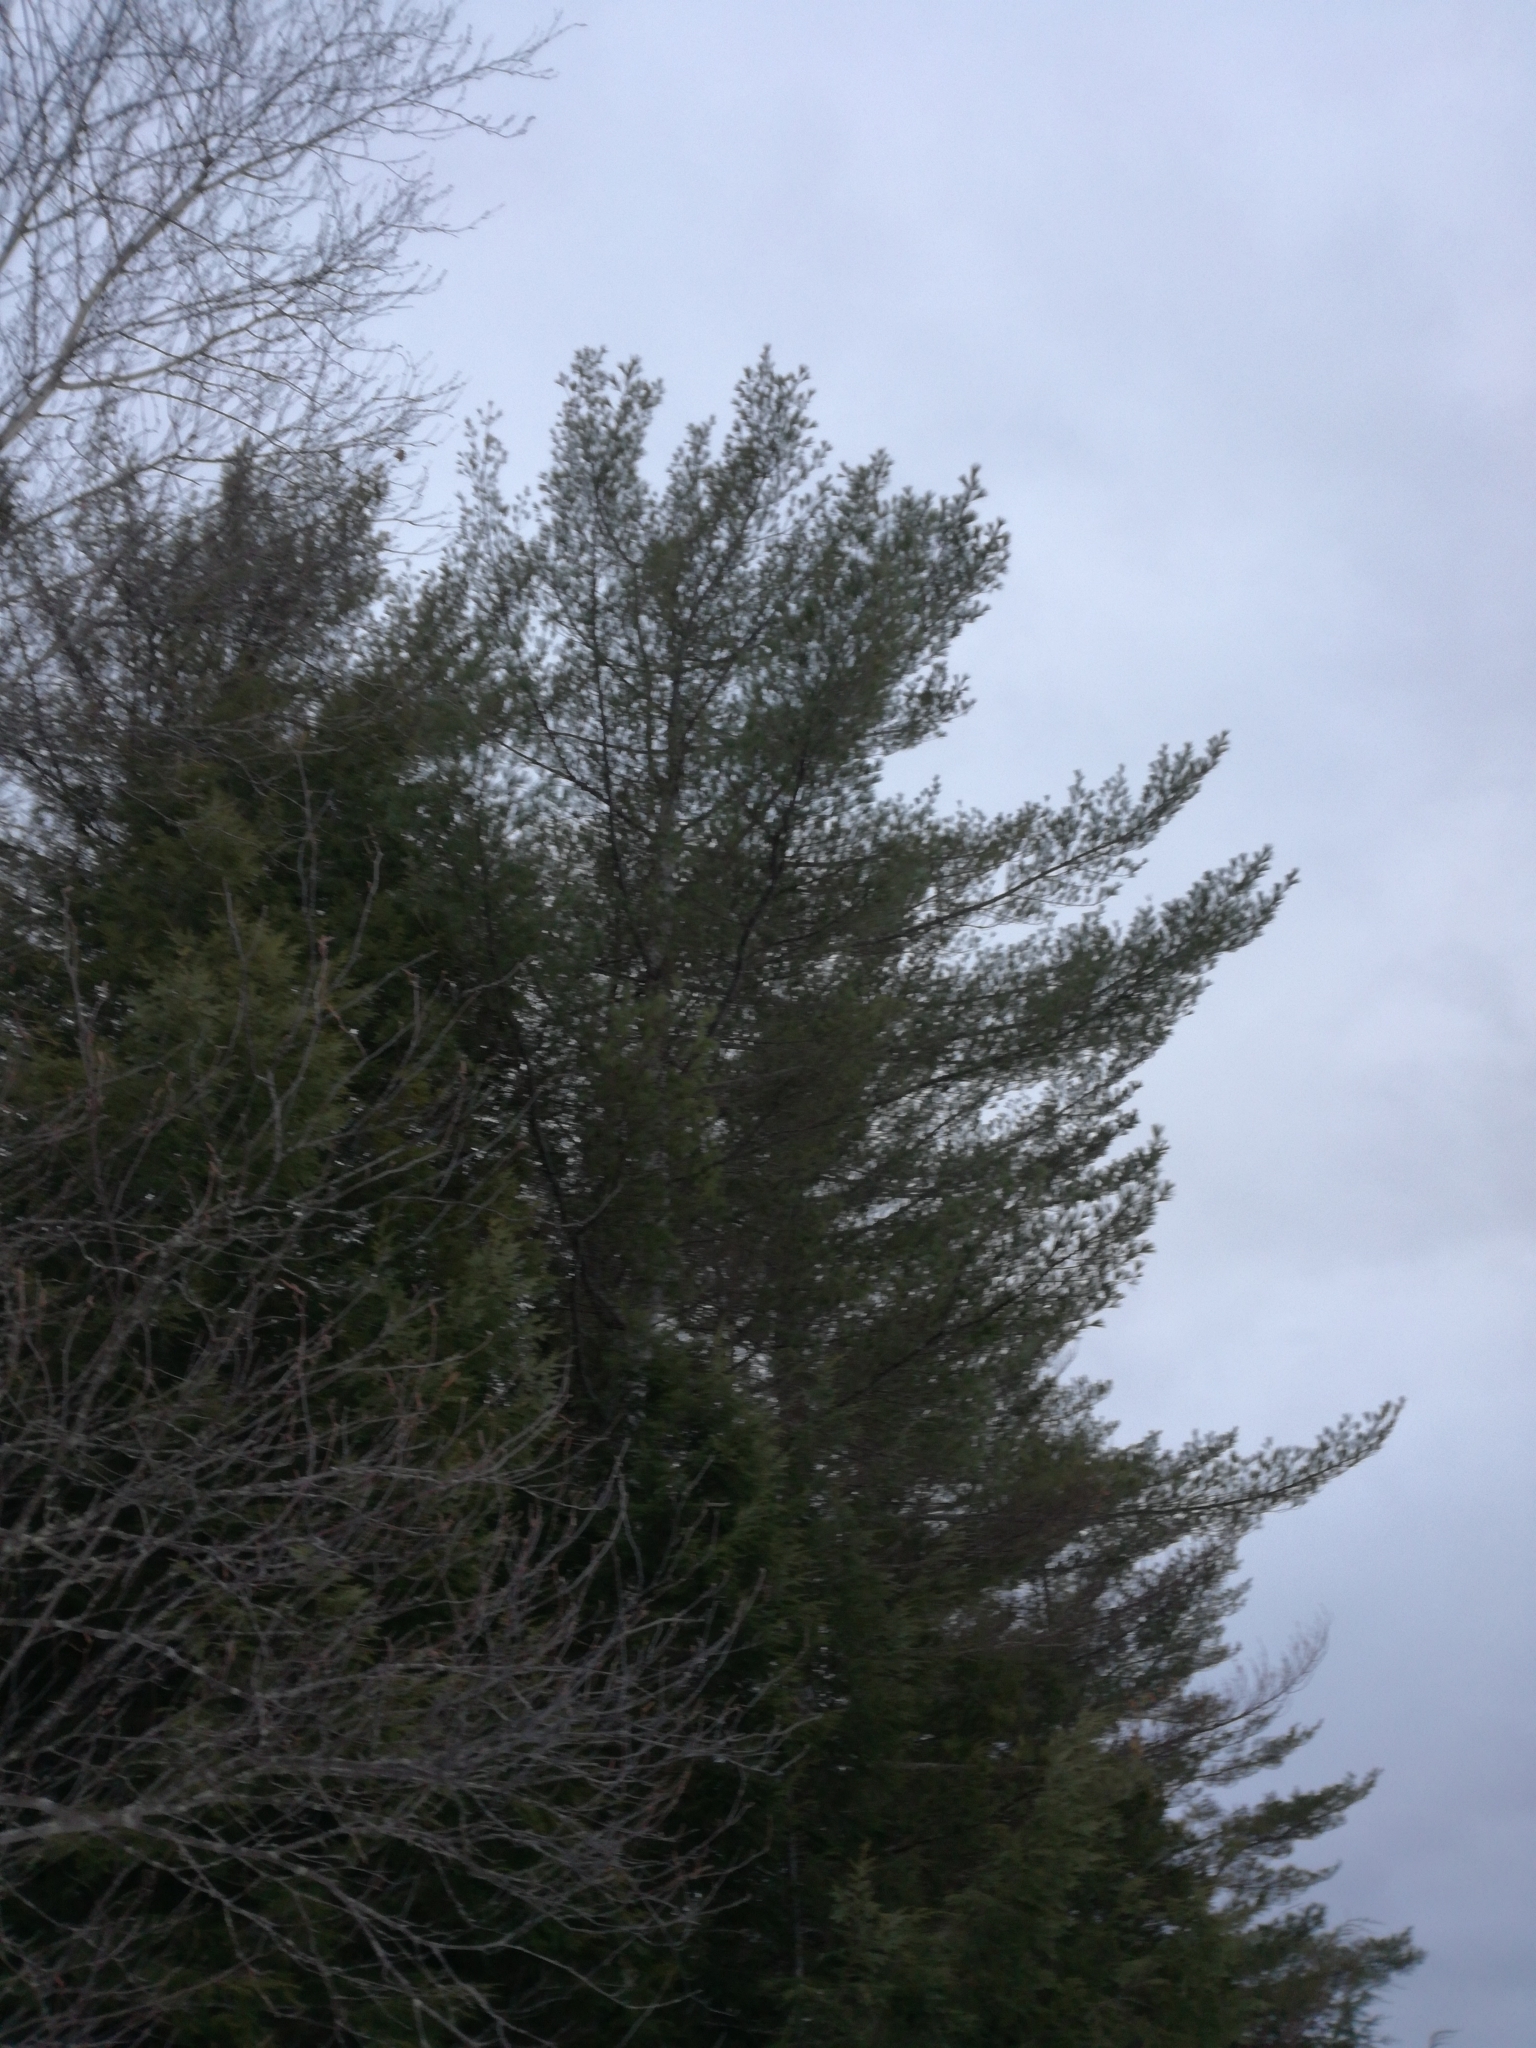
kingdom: Plantae
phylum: Tracheophyta
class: Pinopsida
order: Pinales
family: Pinaceae
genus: Pinus
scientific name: Pinus strobus
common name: Weymouth pine
